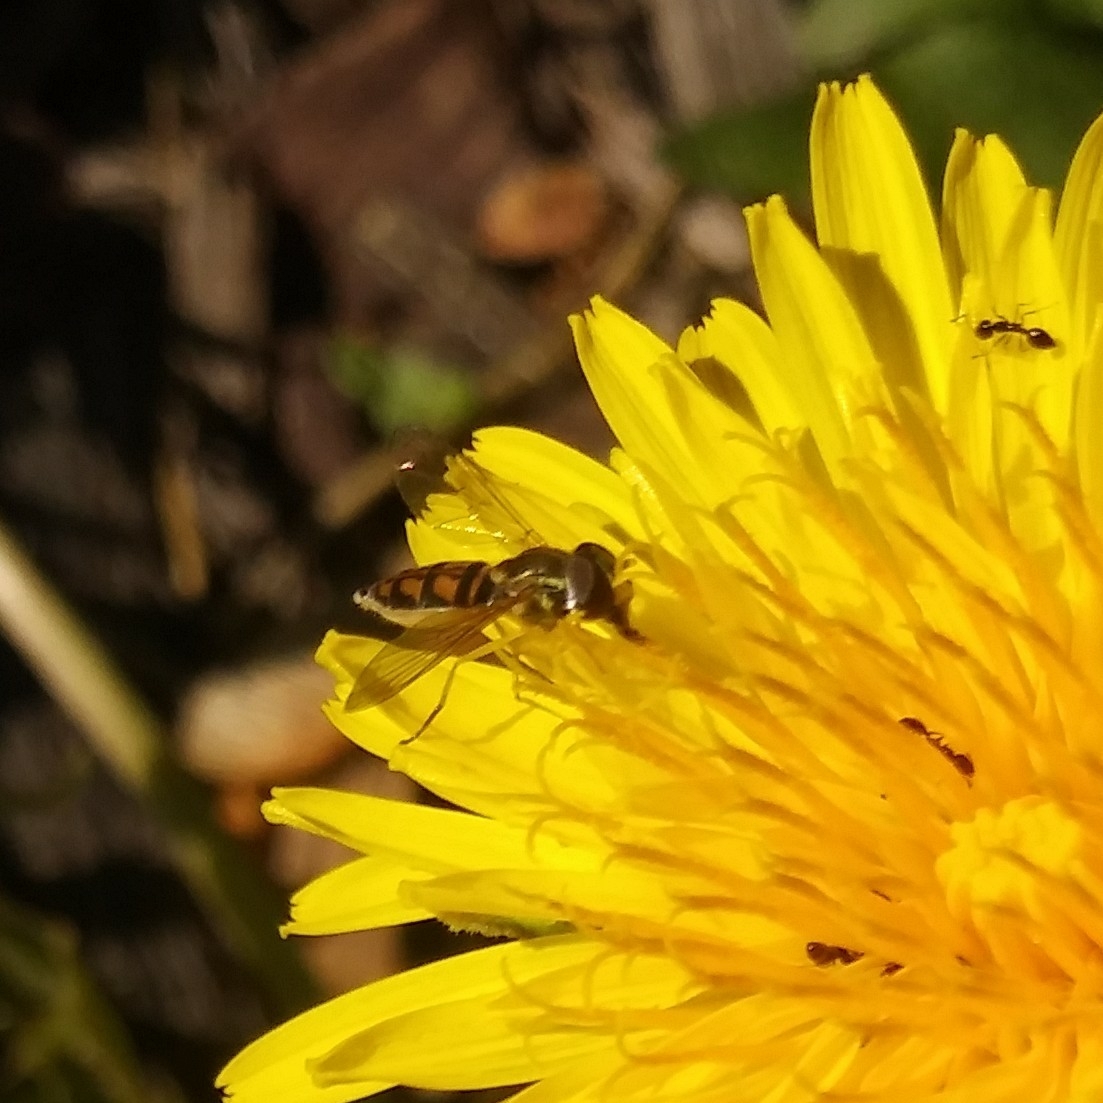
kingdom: Animalia
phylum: Arthropoda
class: Insecta
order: Diptera
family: Syrphidae
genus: Toxomerus
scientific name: Toxomerus marginatus
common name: Syrphid fly
